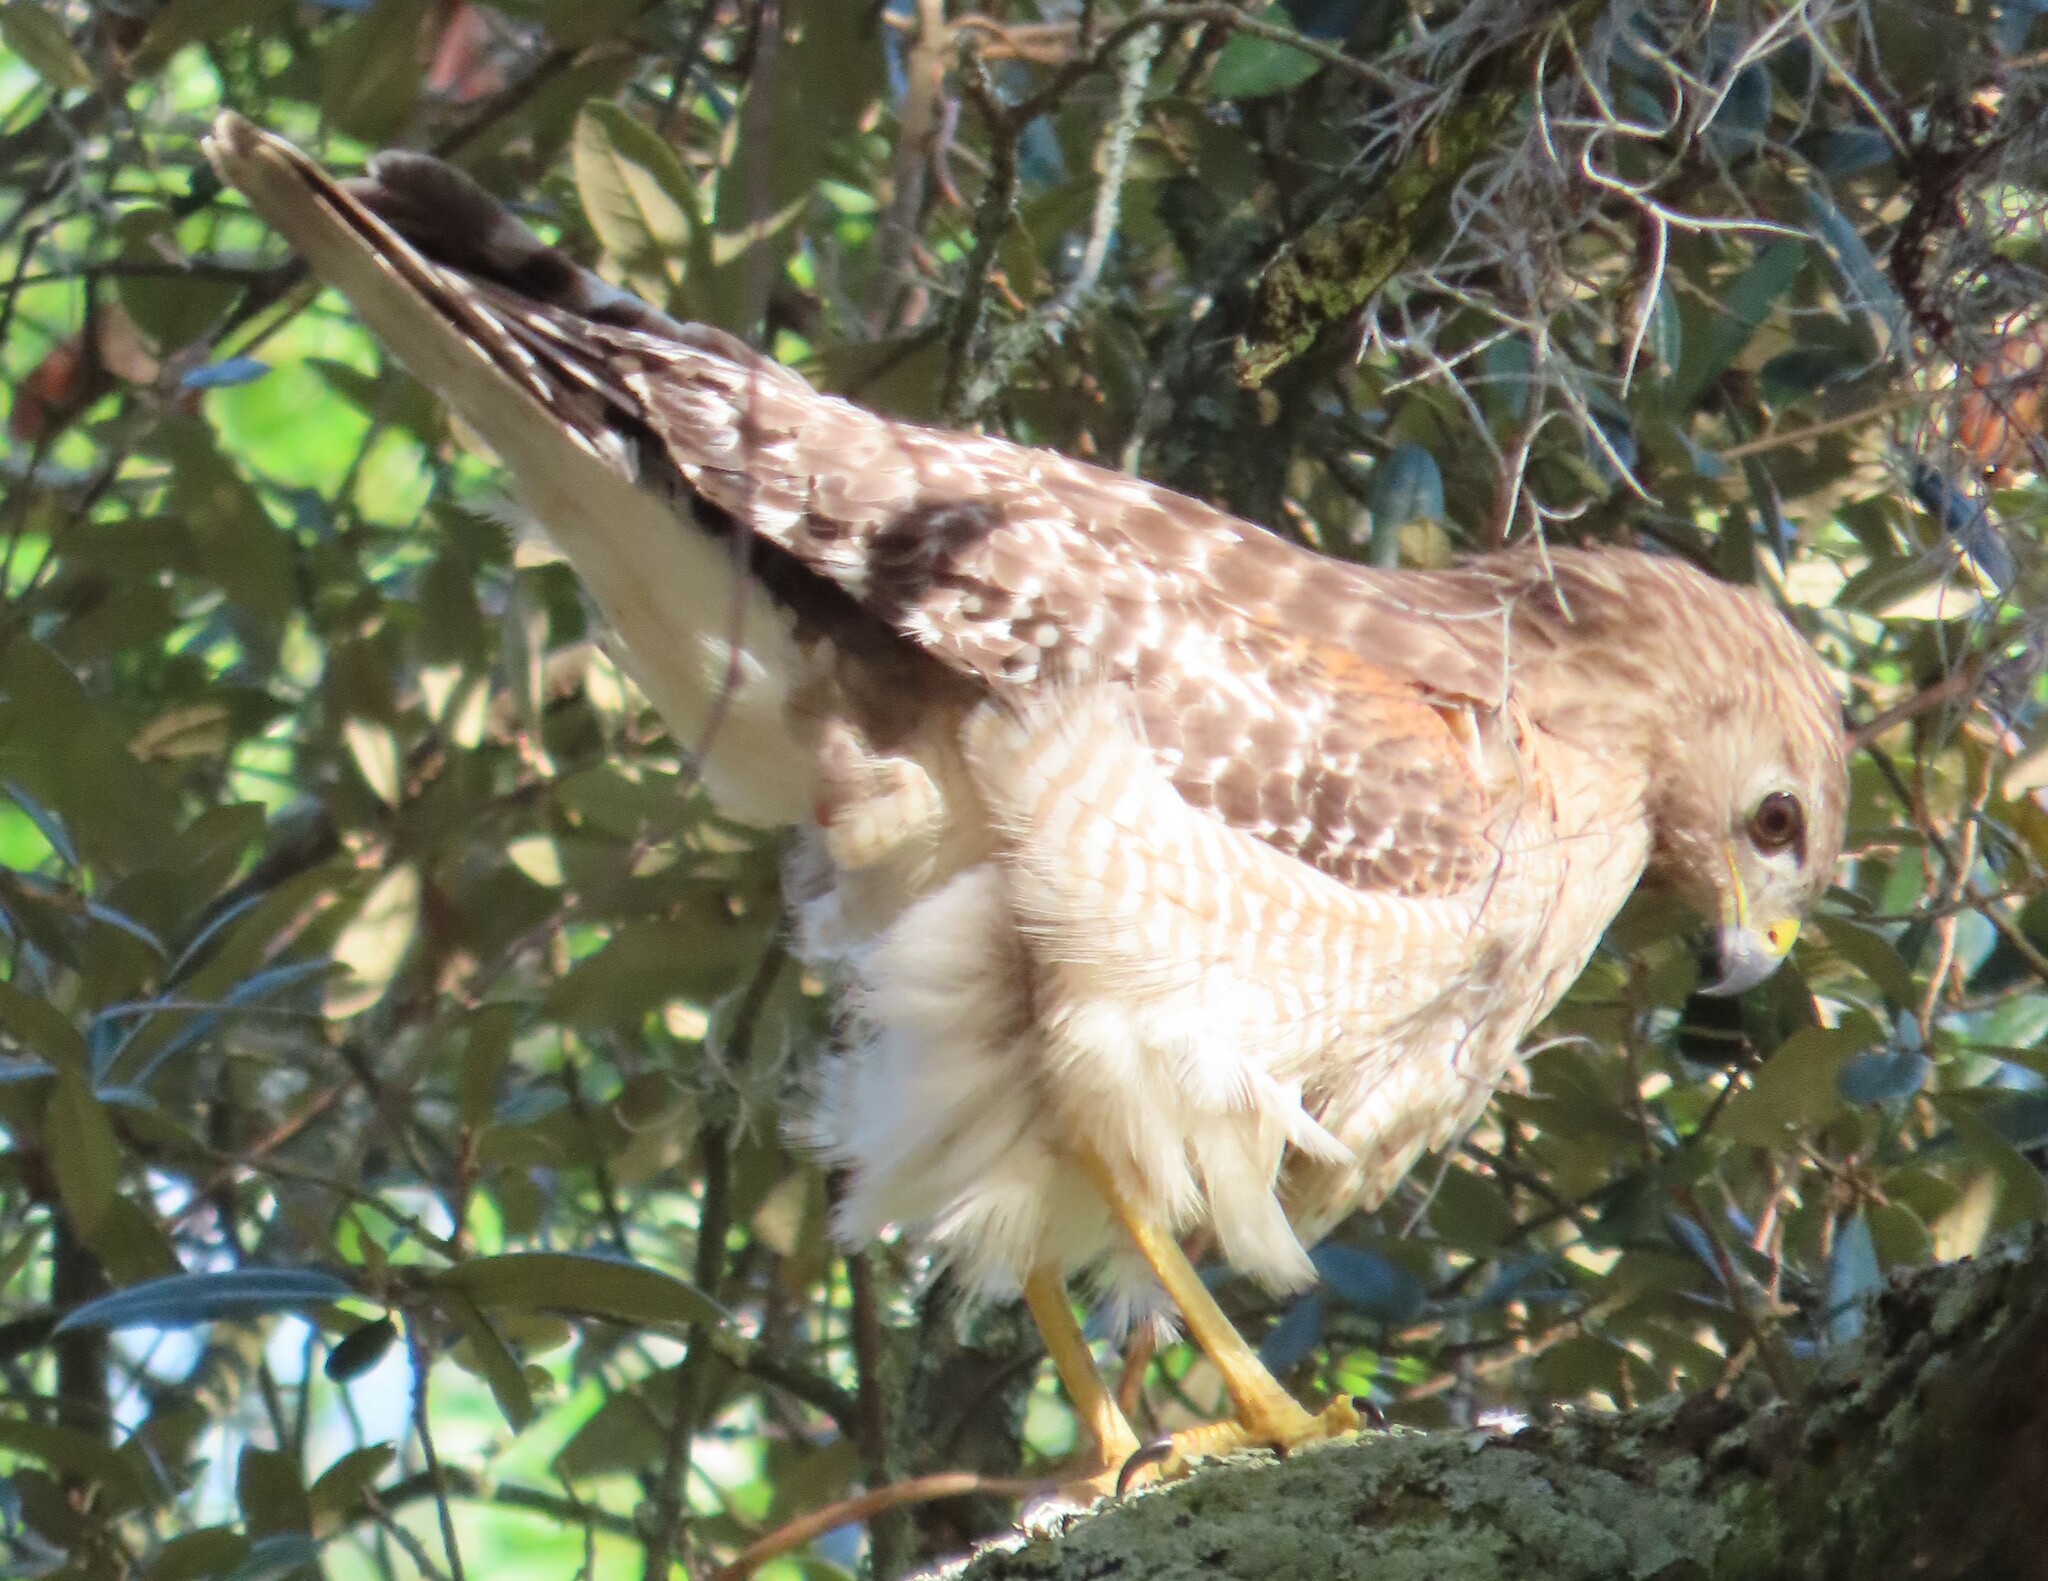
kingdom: Animalia
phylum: Chordata
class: Aves
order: Accipitriformes
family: Accipitridae
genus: Buteo
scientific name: Buteo lineatus
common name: Red-shouldered hawk
